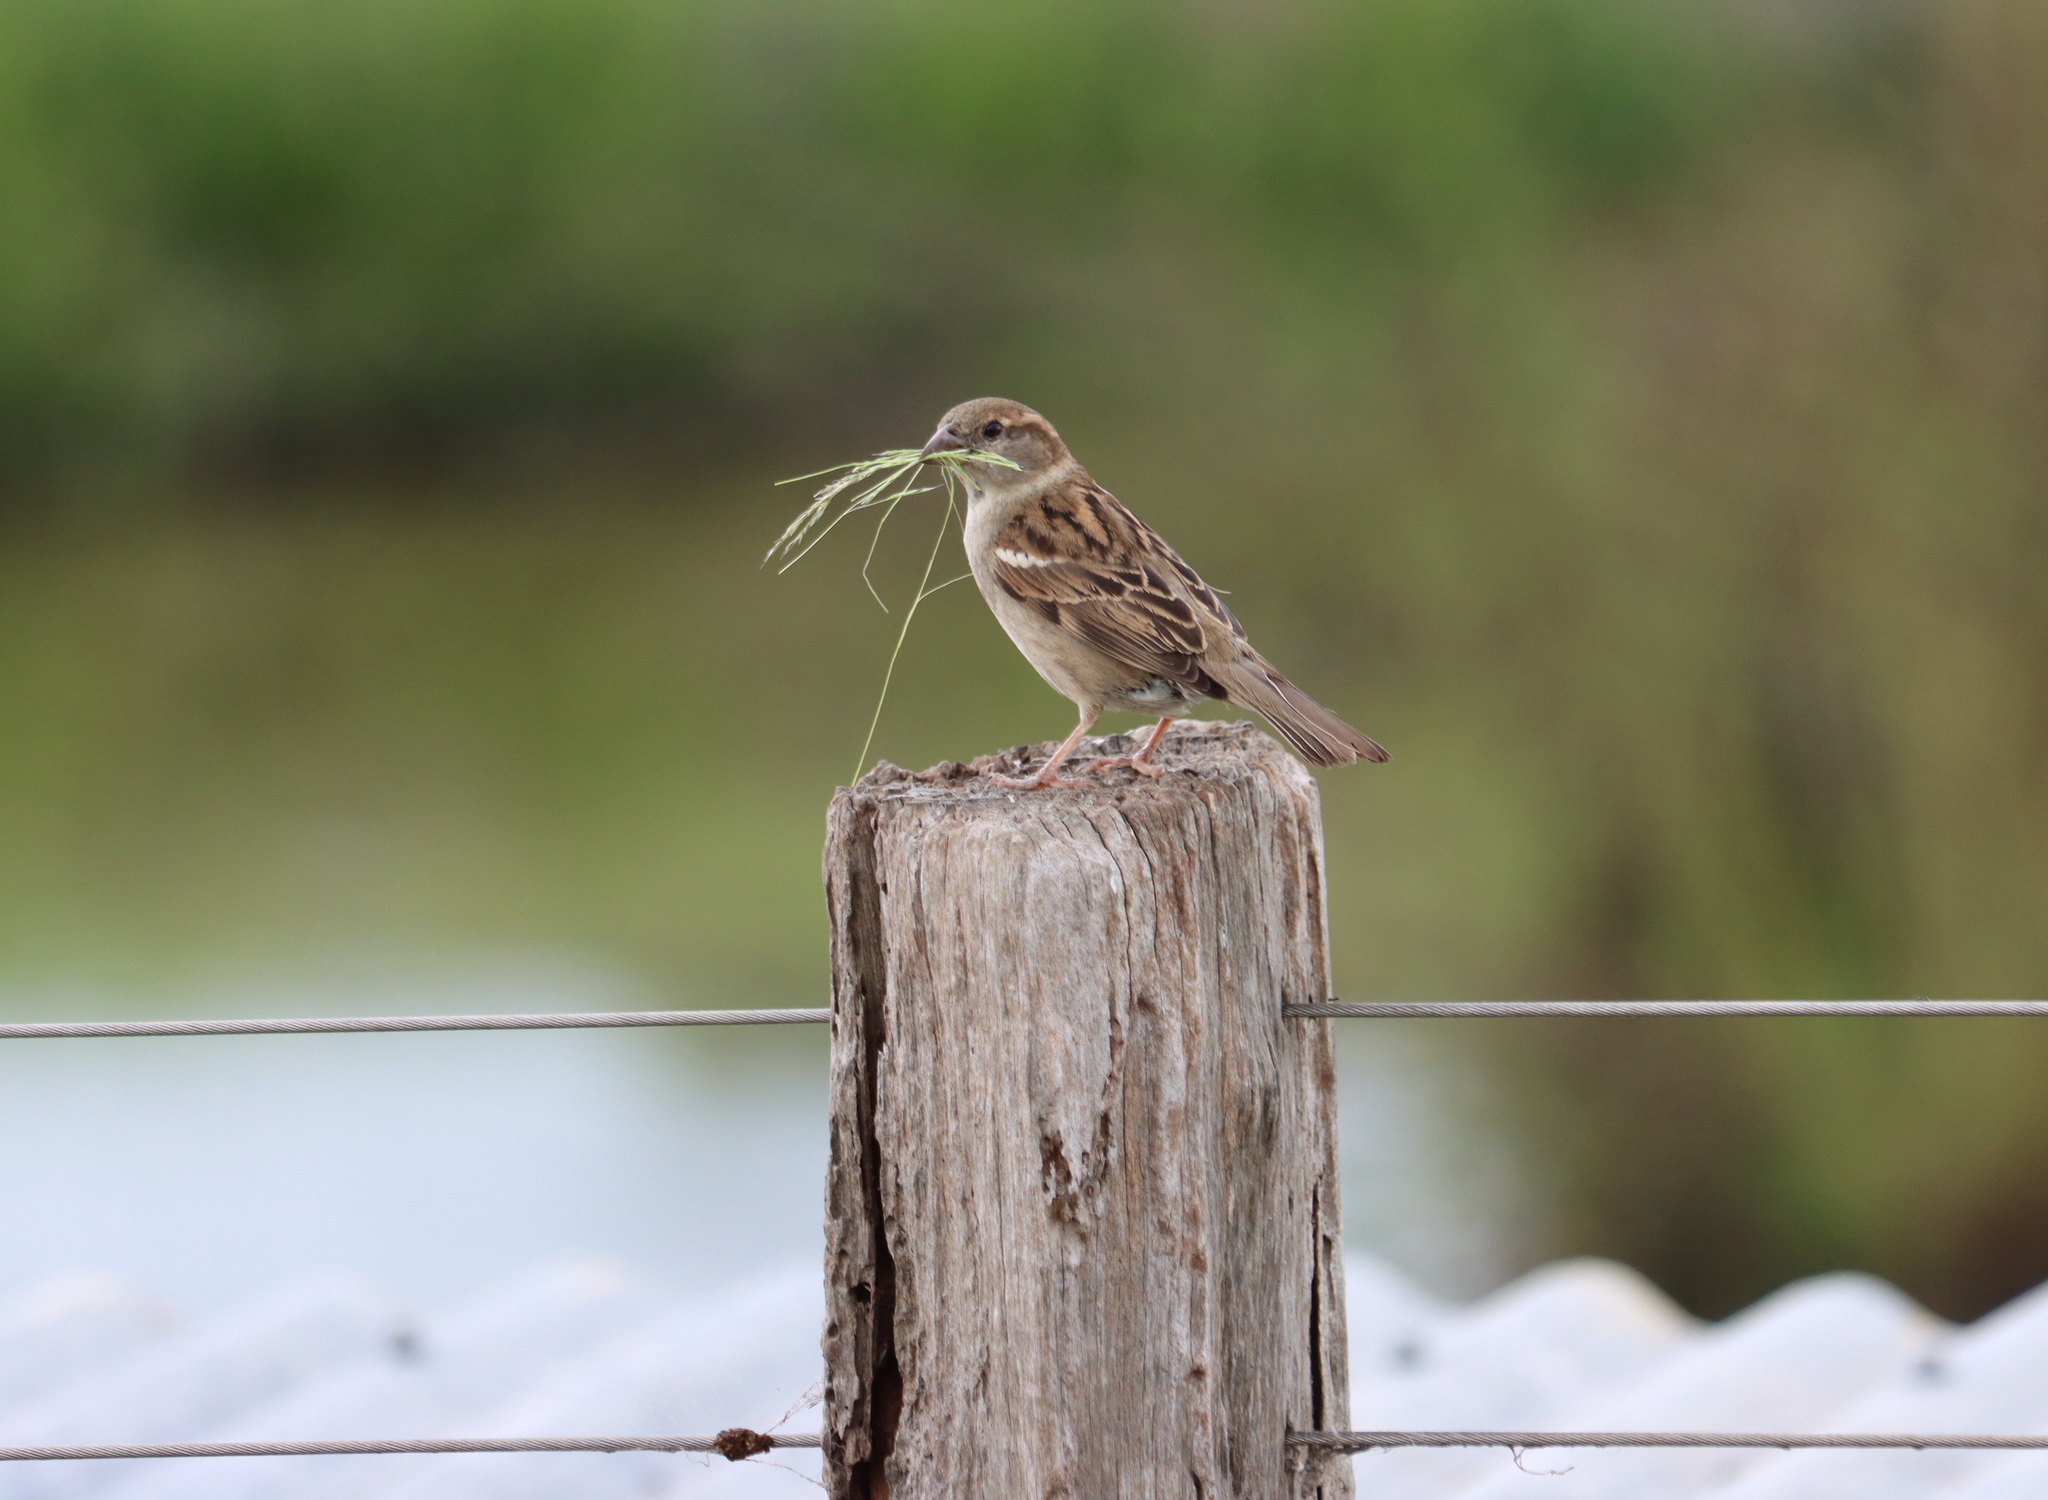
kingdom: Animalia
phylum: Chordata
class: Aves
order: Passeriformes
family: Passeridae
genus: Passer
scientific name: Passer domesticus
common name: House sparrow
